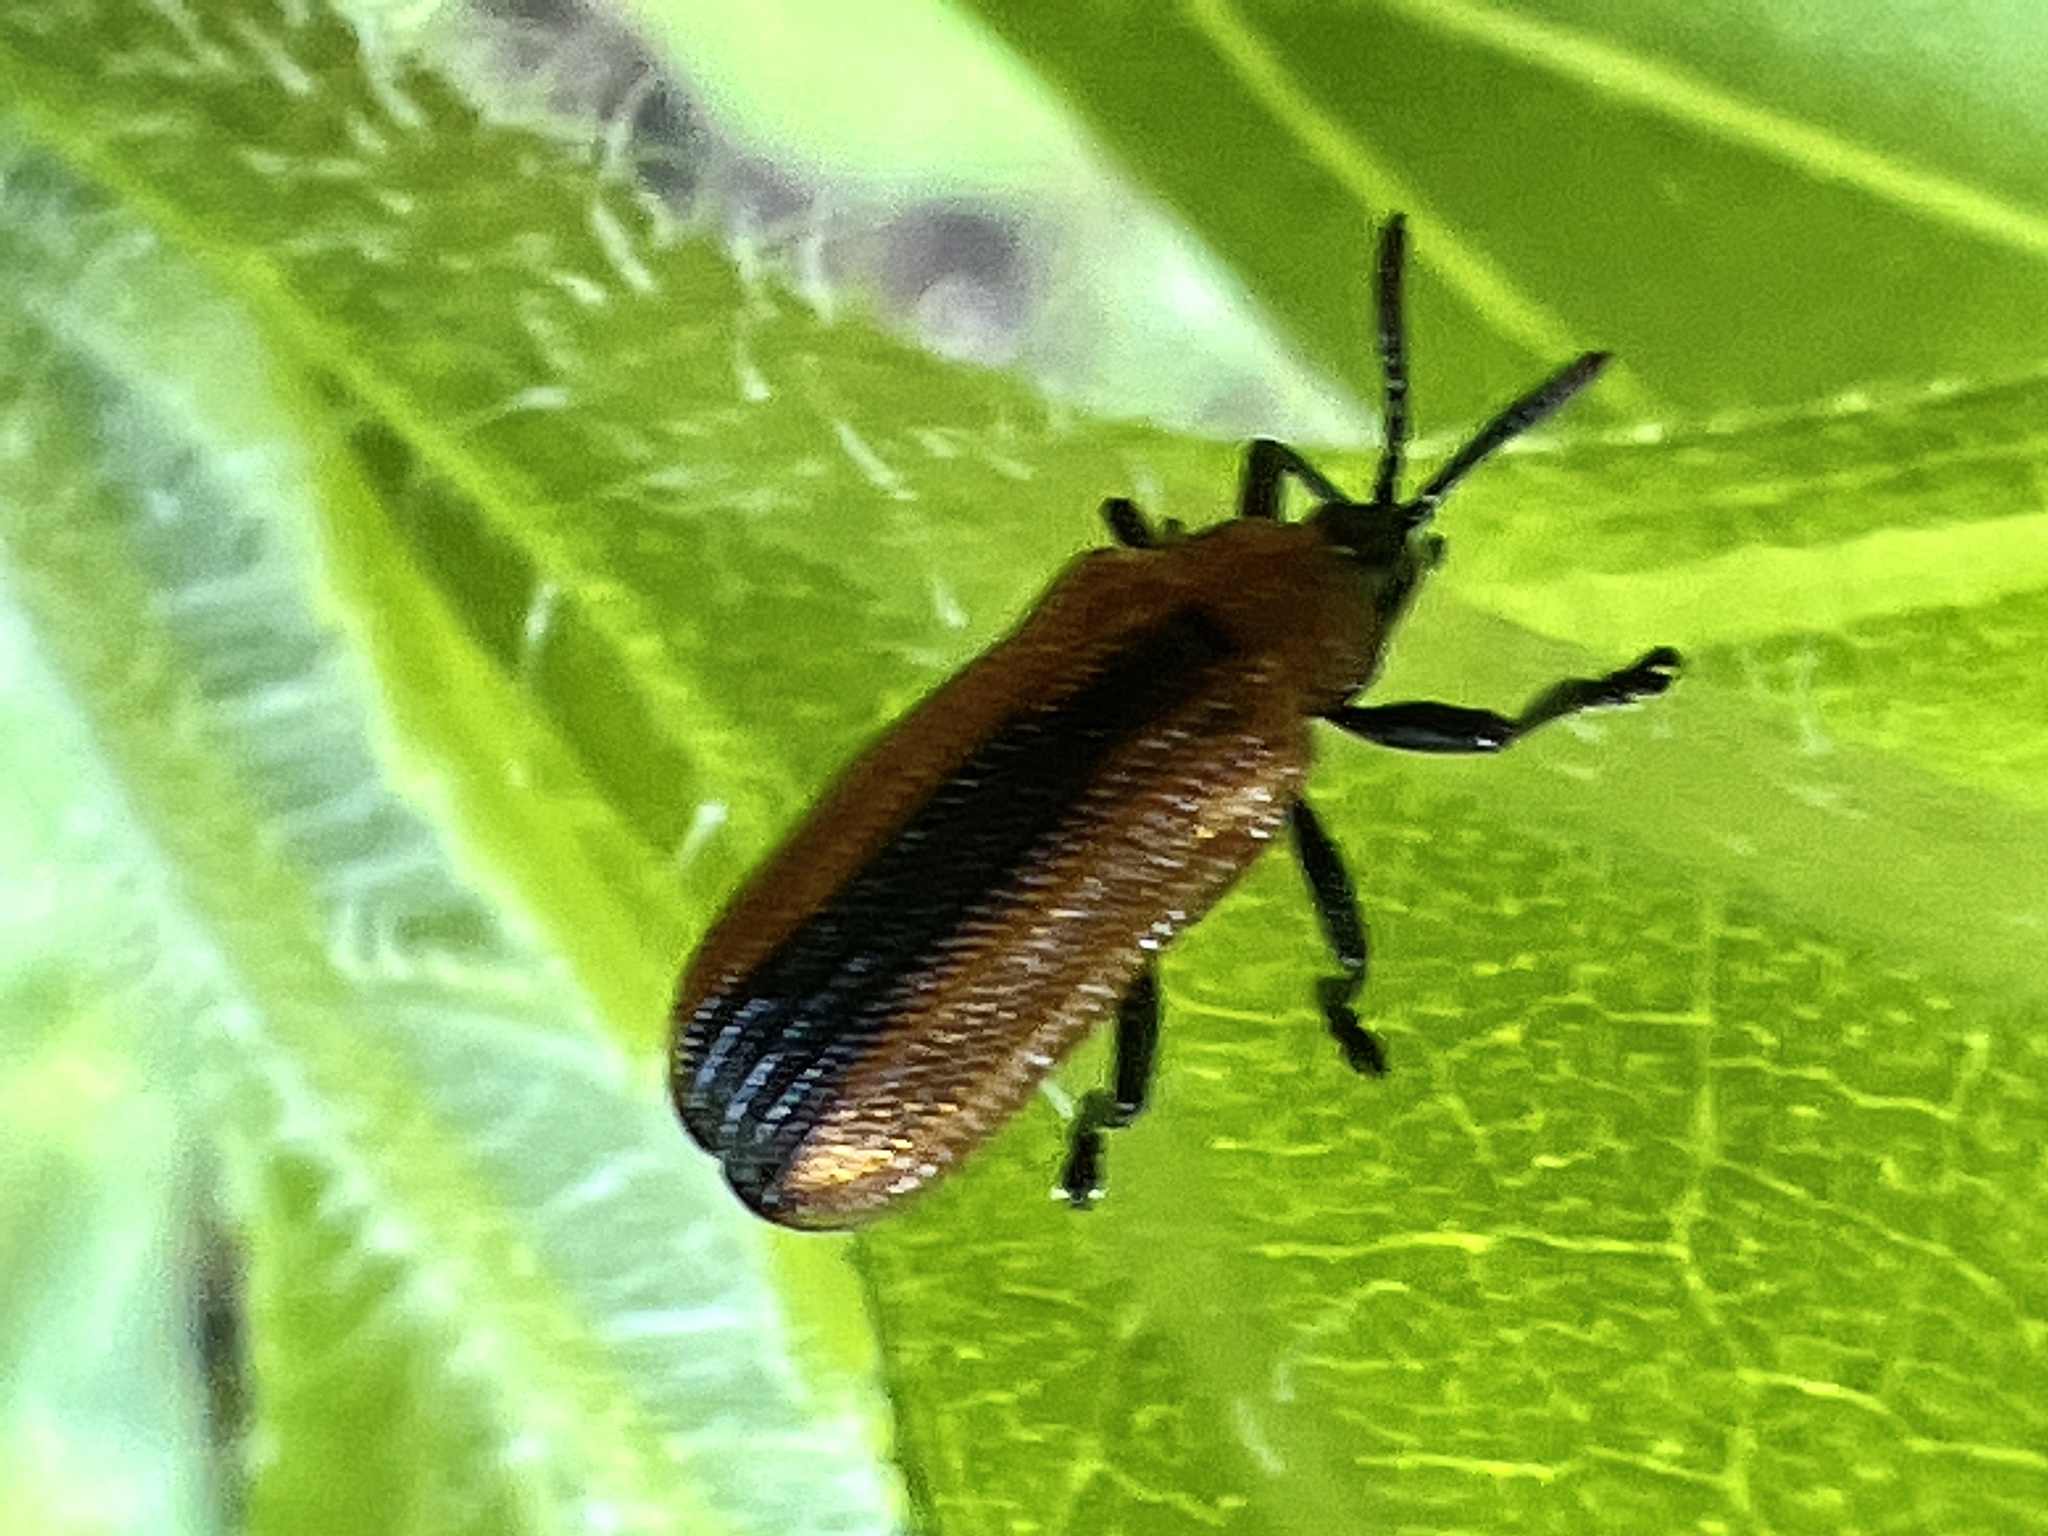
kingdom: Animalia
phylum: Arthropoda
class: Insecta
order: Coleoptera
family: Chrysomelidae
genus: Odontota
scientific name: Odontota dorsalis
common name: Locust leaf-miner beetle
